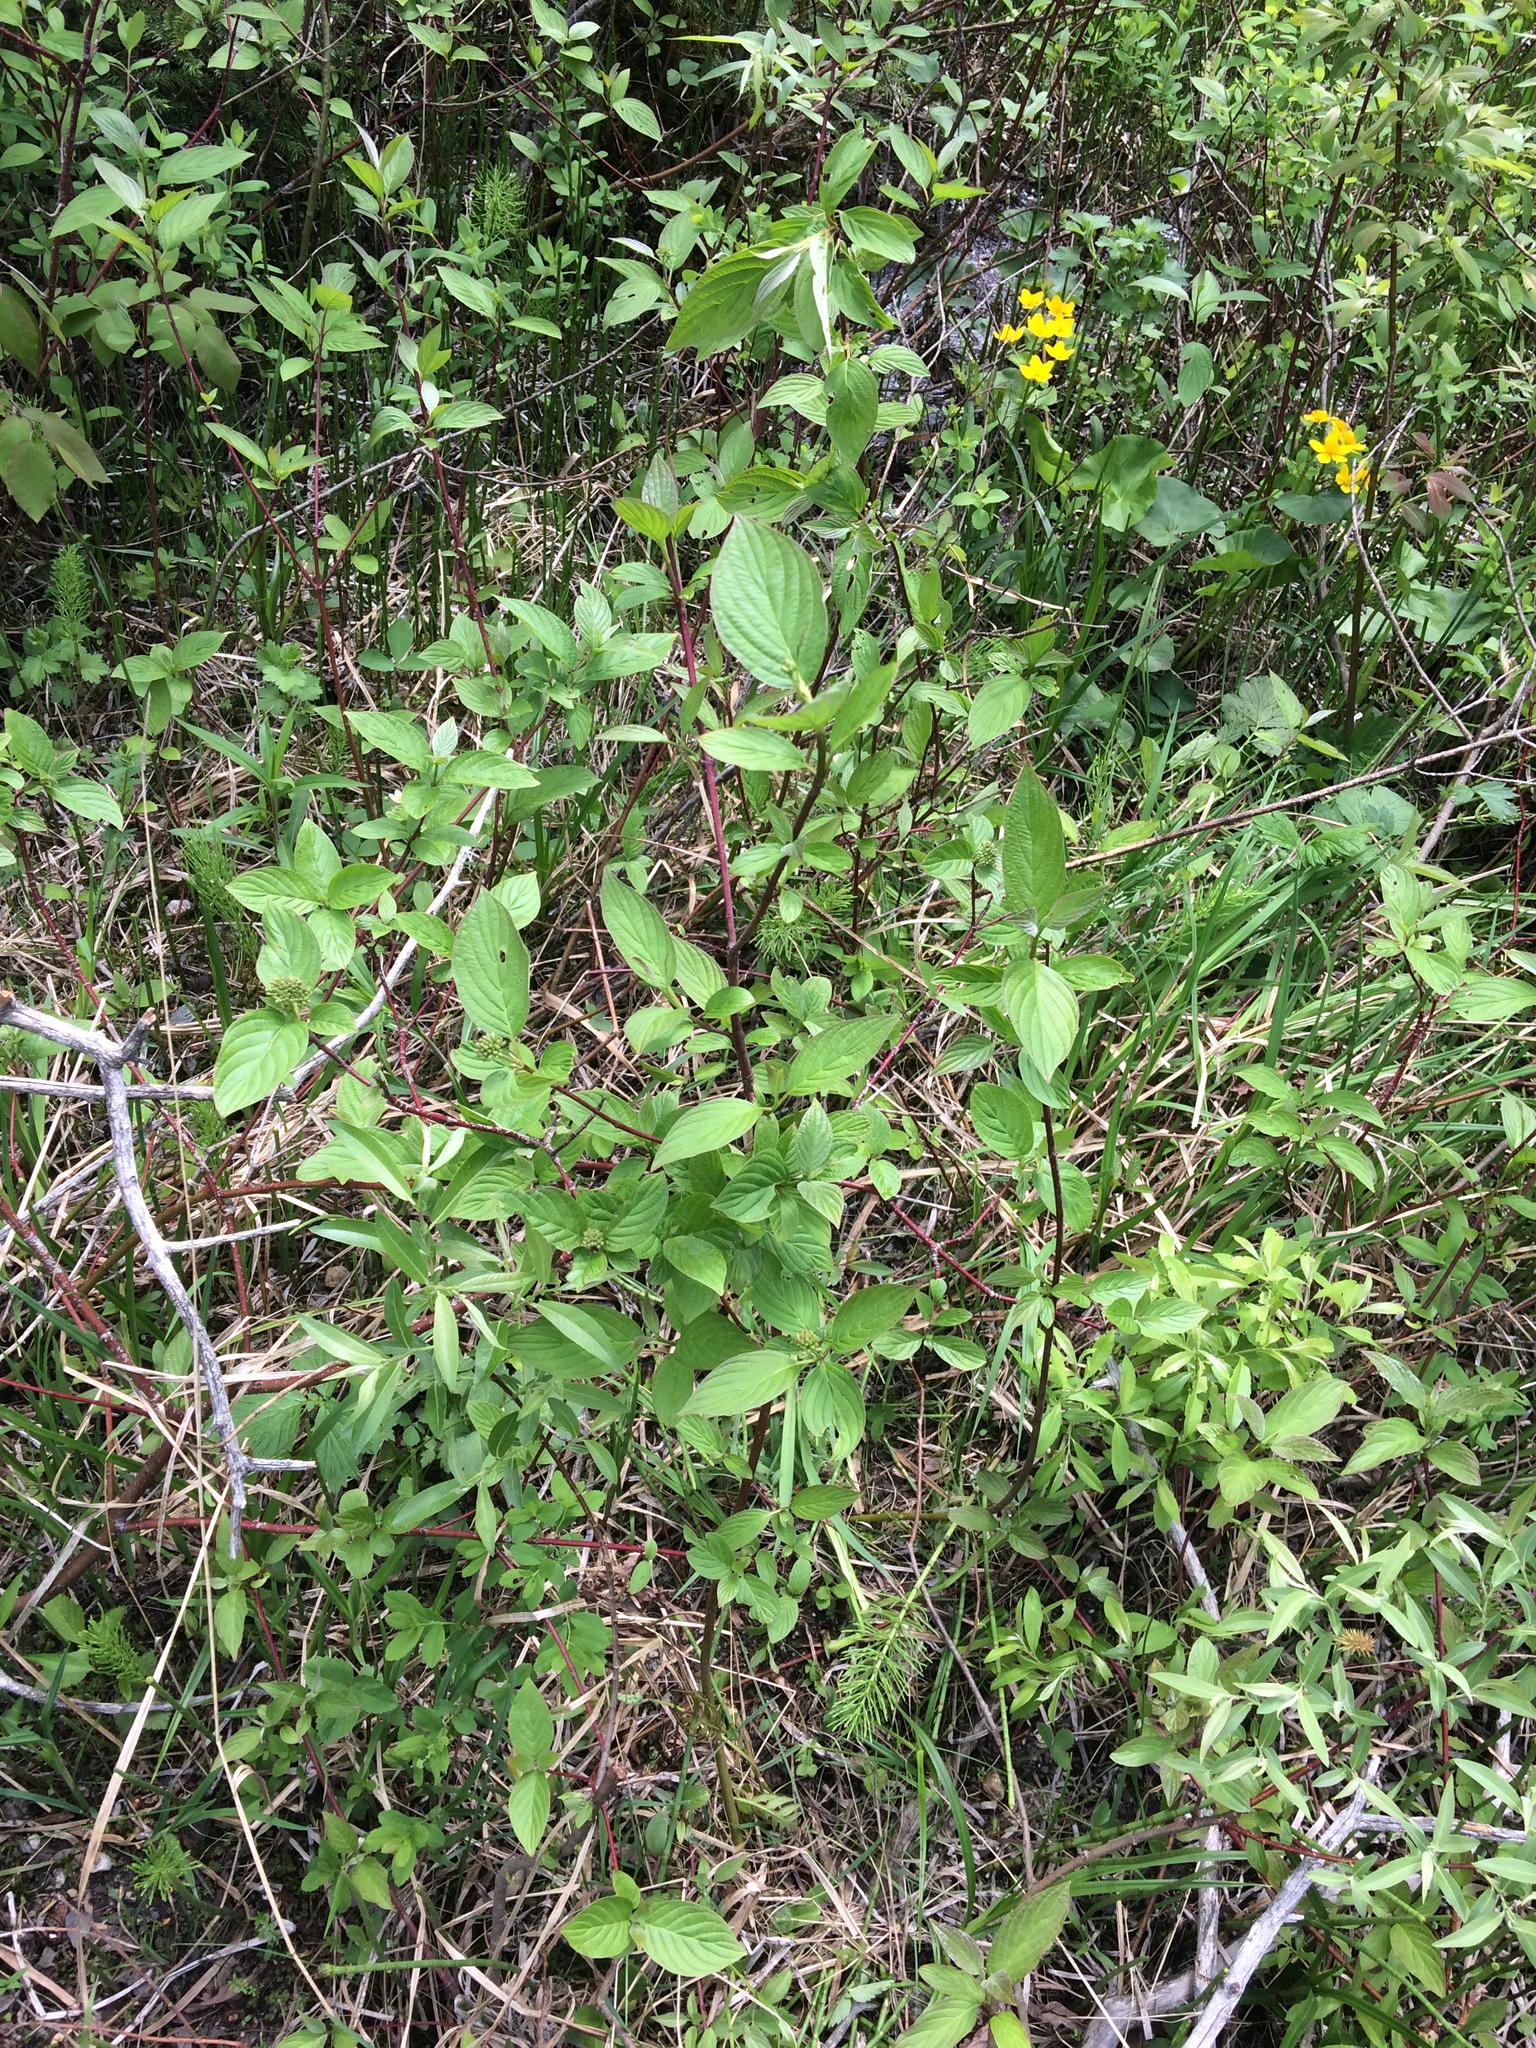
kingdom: Plantae
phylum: Tracheophyta
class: Magnoliopsida
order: Cornales
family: Cornaceae
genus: Cornus
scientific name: Cornus sericea
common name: Red-osier dogwood
